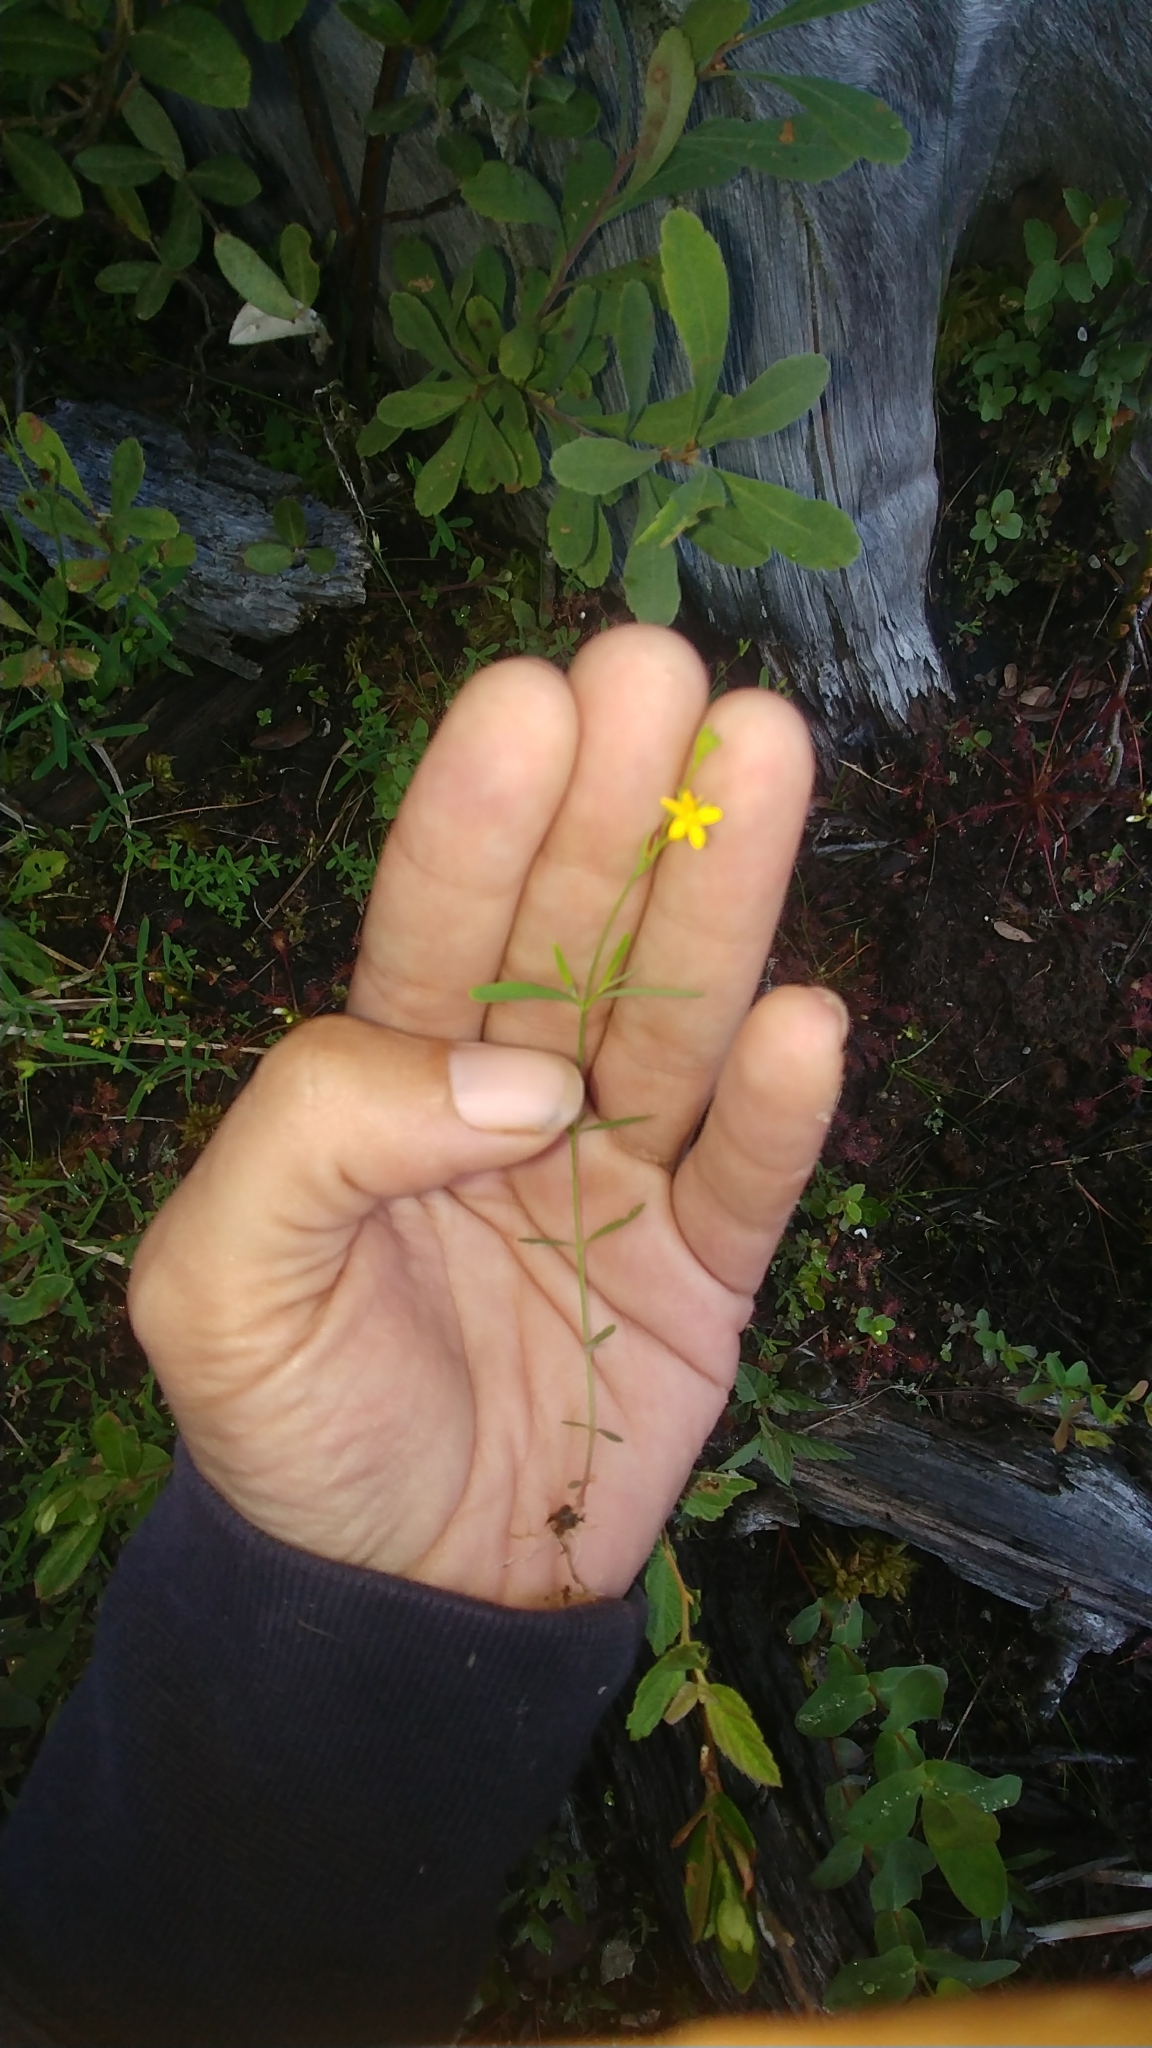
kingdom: Plantae
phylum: Tracheophyta
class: Magnoliopsida
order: Malpighiales
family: Hypericaceae
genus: Hypericum
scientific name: Hypericum canadense
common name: Irish st. john's-wort
